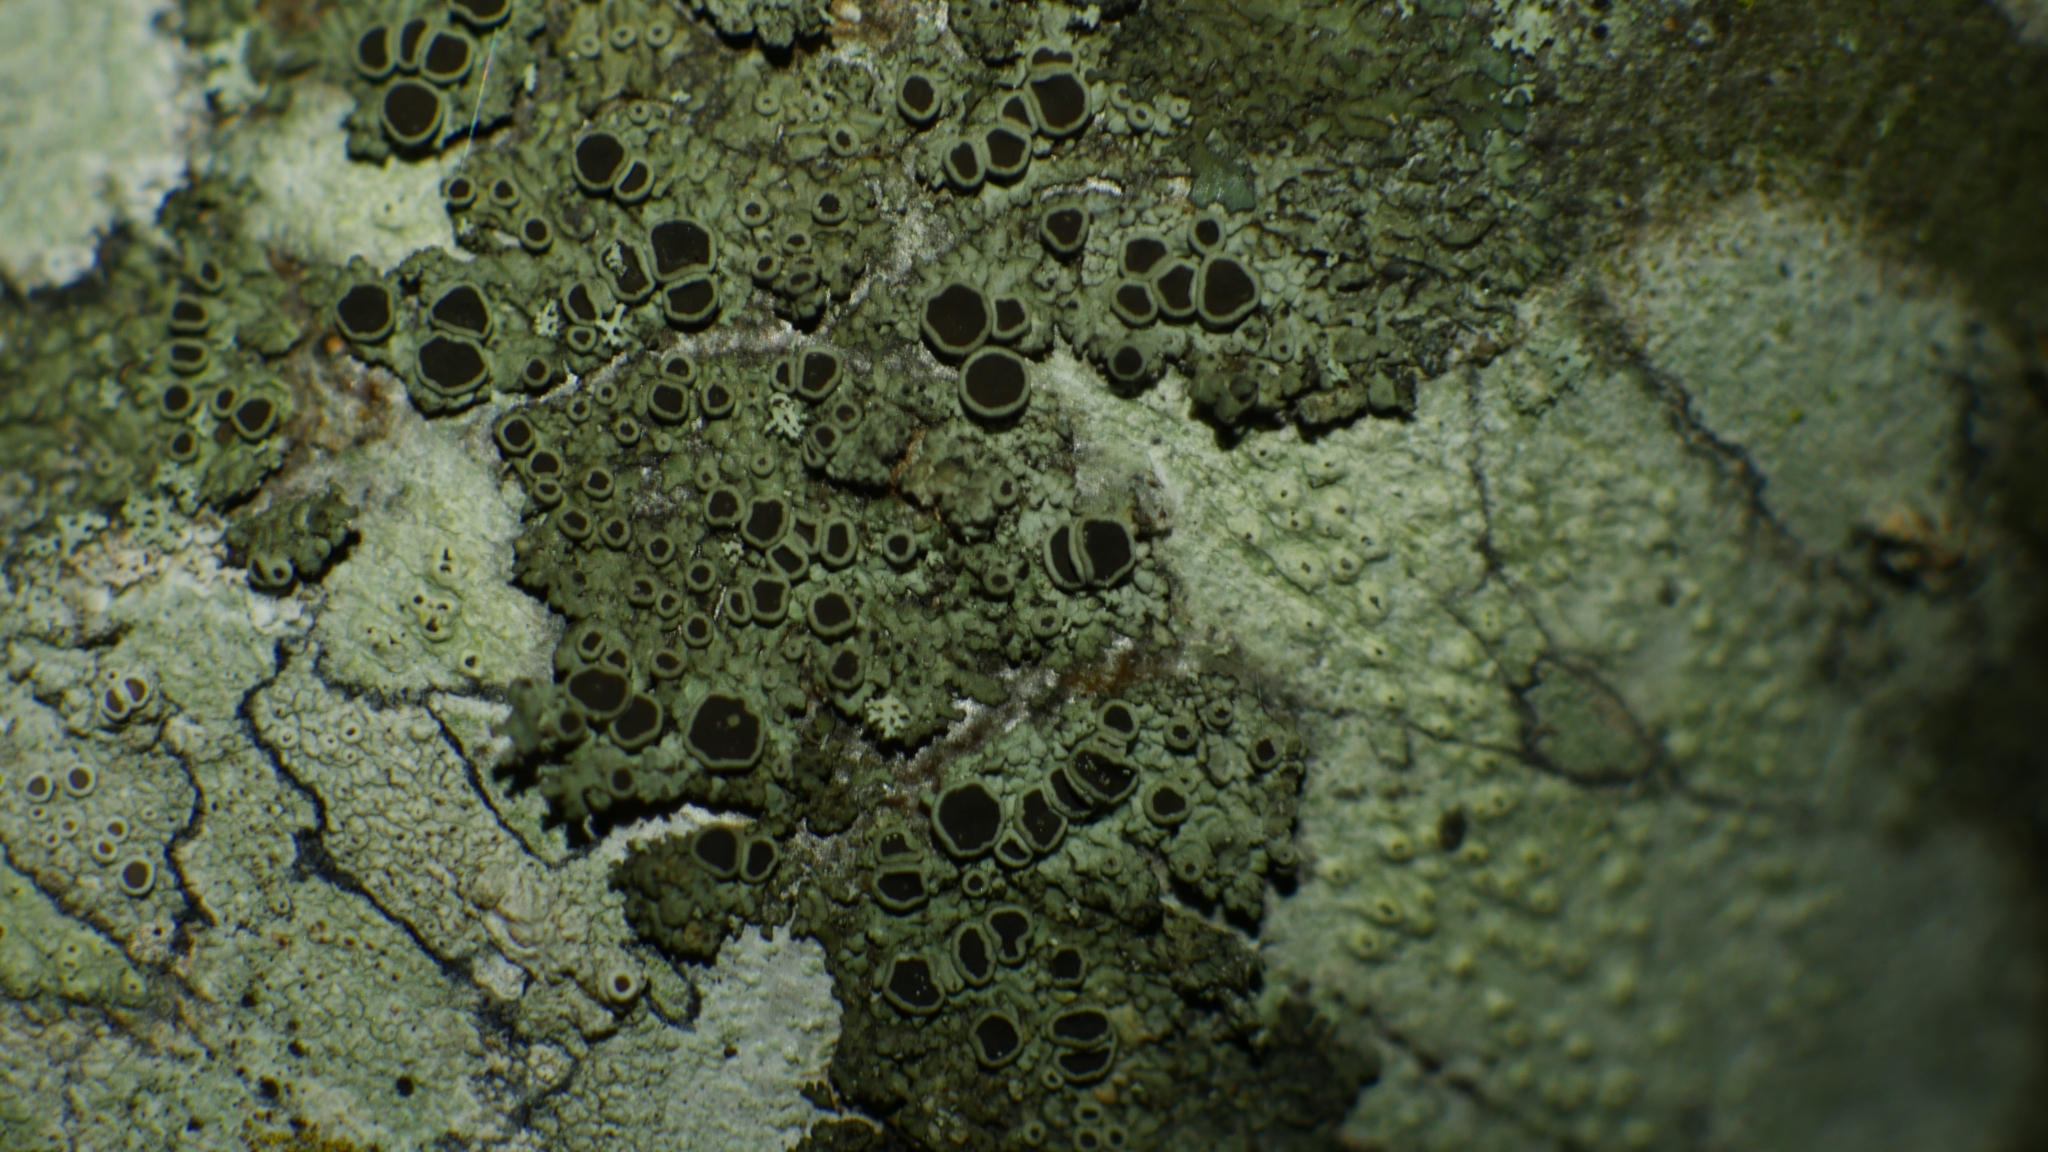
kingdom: Fungi
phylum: Ascomycota
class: Lecanoromycetes
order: Caliciales
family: Physciaceae
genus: Hyperphyscia
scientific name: Hyperphyscia syncolla
